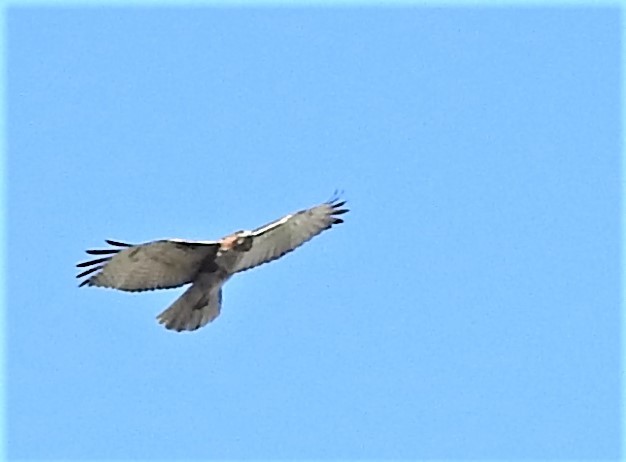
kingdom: Animalia
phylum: Chordata
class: Aves
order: Accipitriformes
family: Accipitridae
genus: Buteo
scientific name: Buteo jamaicensis
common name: Red-tailed hawk
